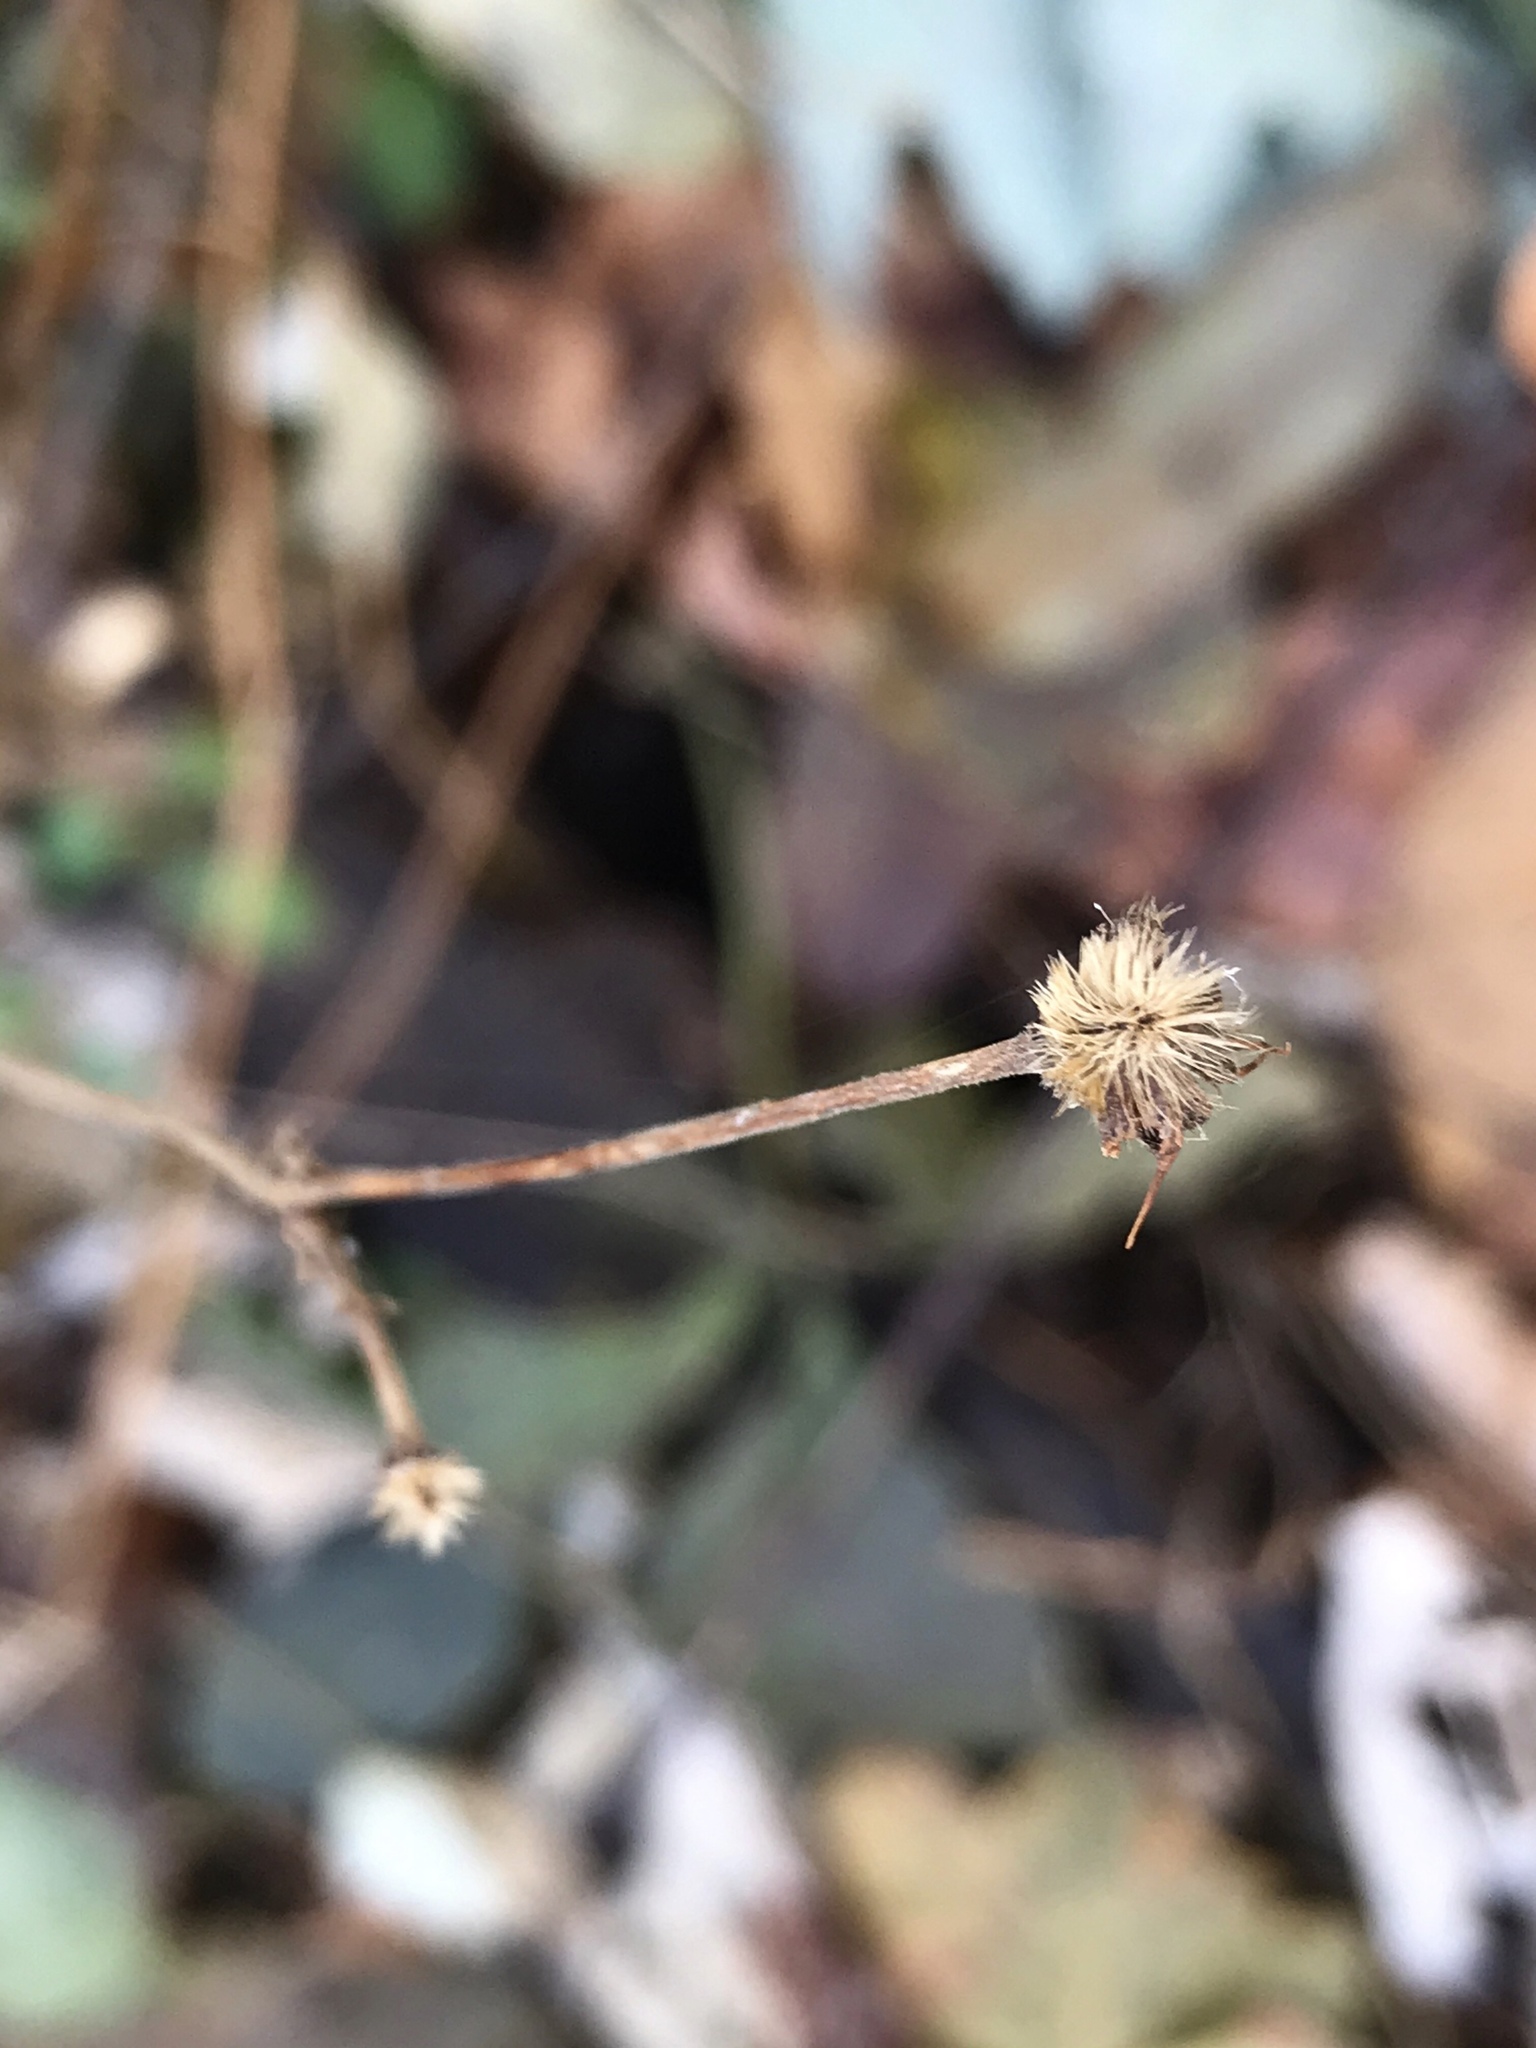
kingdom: Plantae
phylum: Tracheophyta
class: Magnoliopsida
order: Rosales
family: Rosaceae
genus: Geum
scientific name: Geum canadense
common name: White avens
